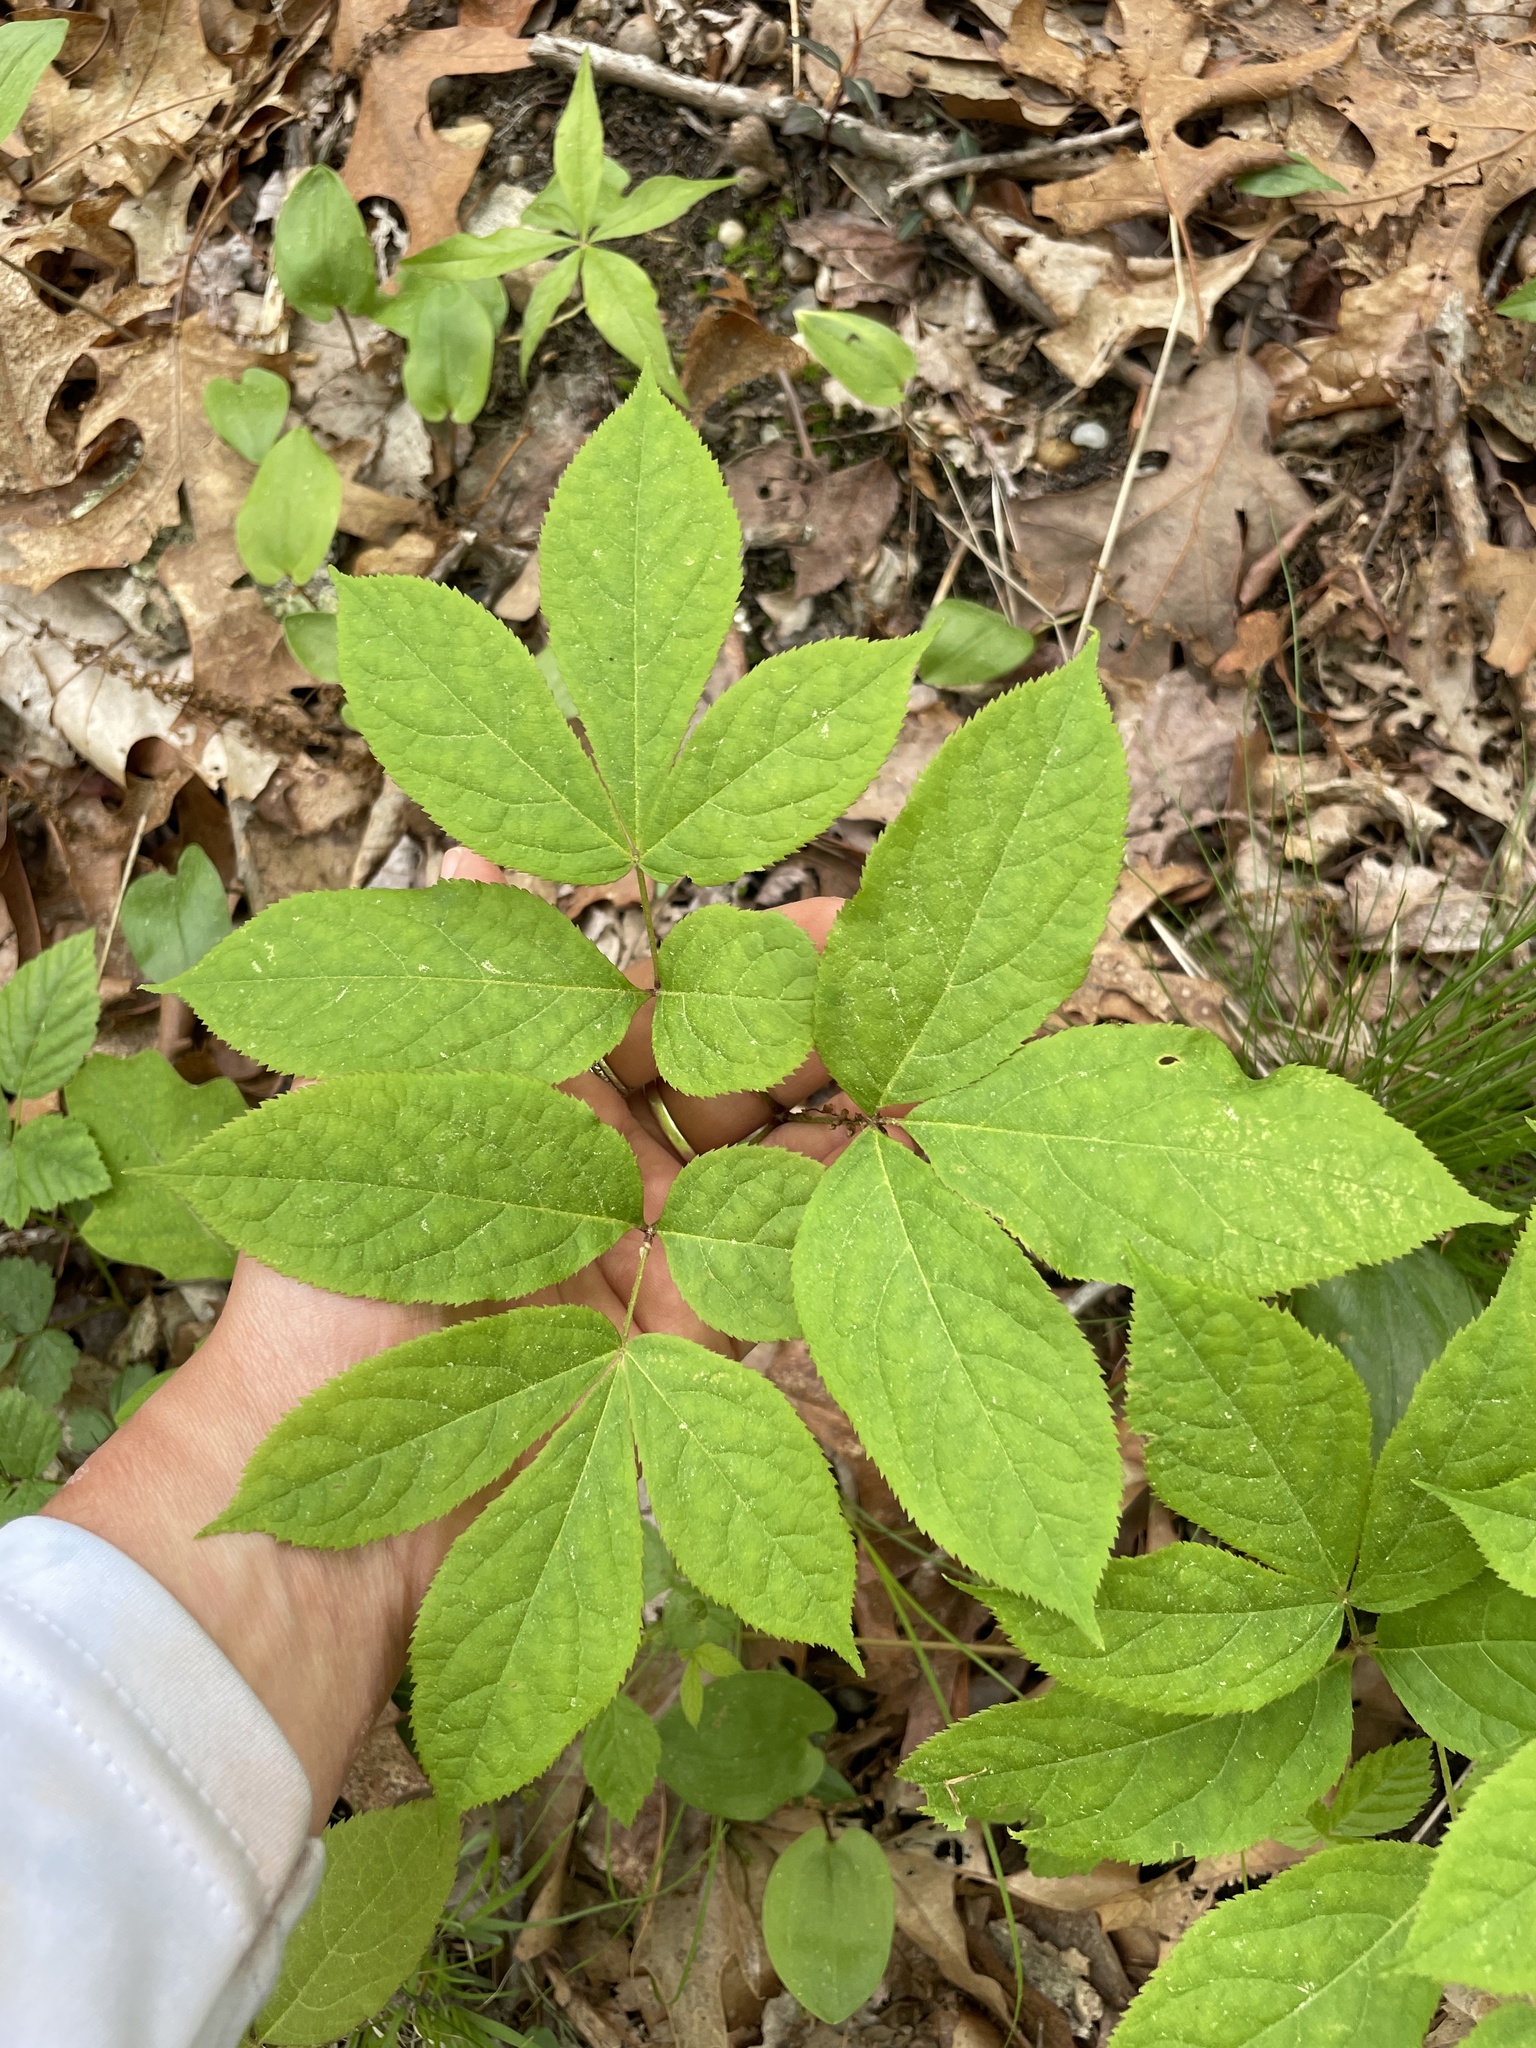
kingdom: Plantae
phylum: Tracheophyta
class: Magnoliopsida
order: Apiales
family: Araliaceae
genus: Aralia
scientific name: Aralia nudicaulis
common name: Wild sarsaparilla
